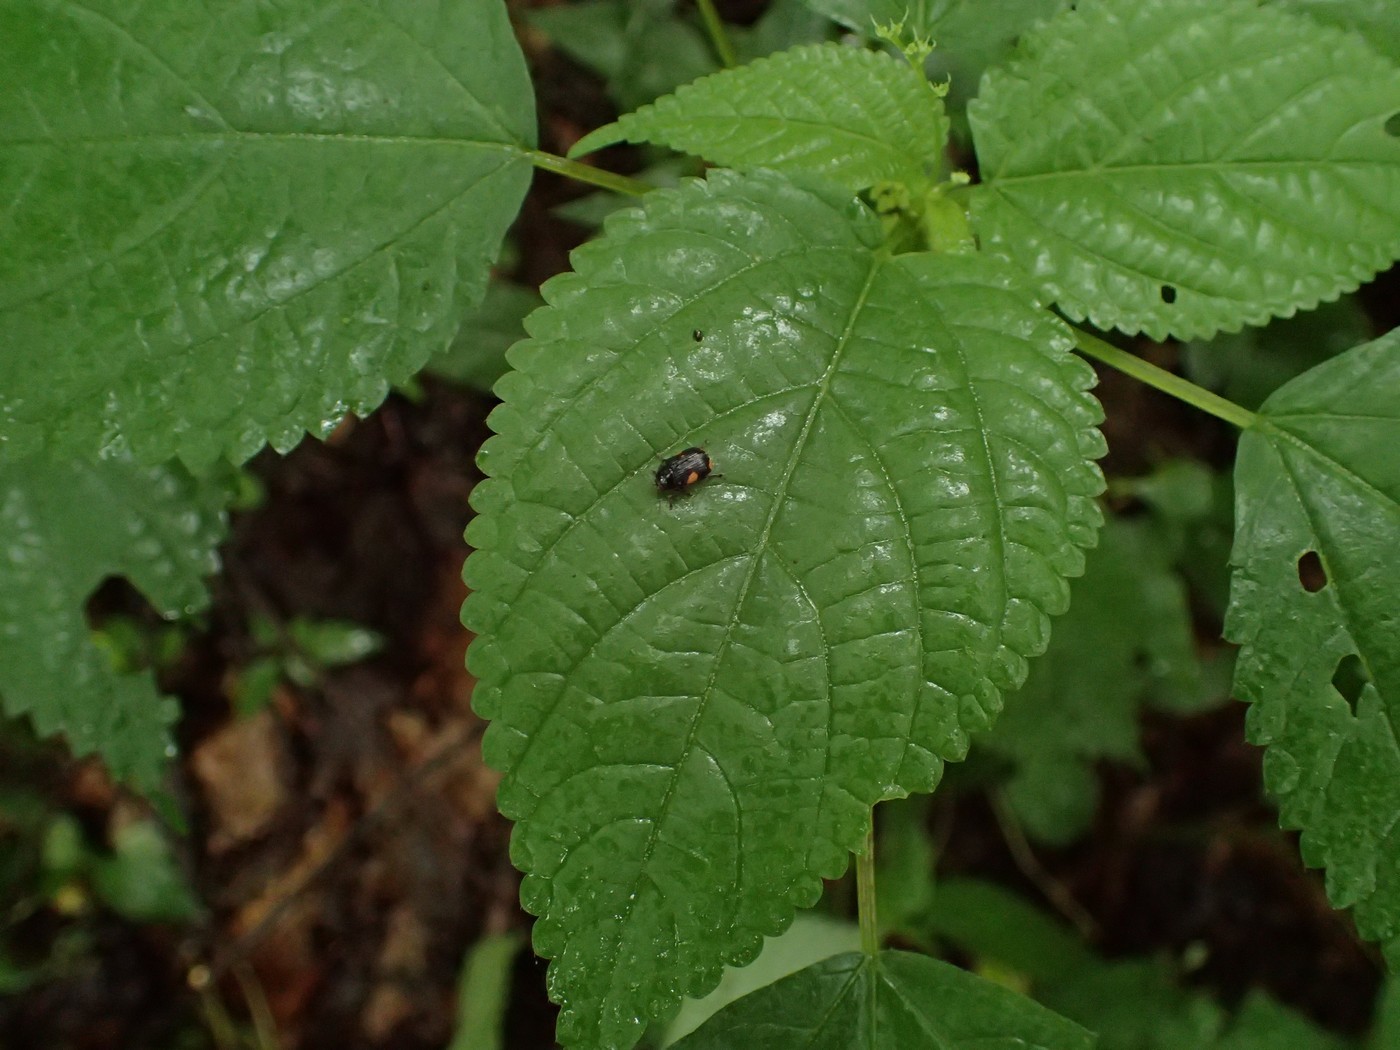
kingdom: Animalia
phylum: Arthropoda
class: Insecta
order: Coleoptera
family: Chrysomelidae
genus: Bassareus
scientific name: Bassareus mammifer
